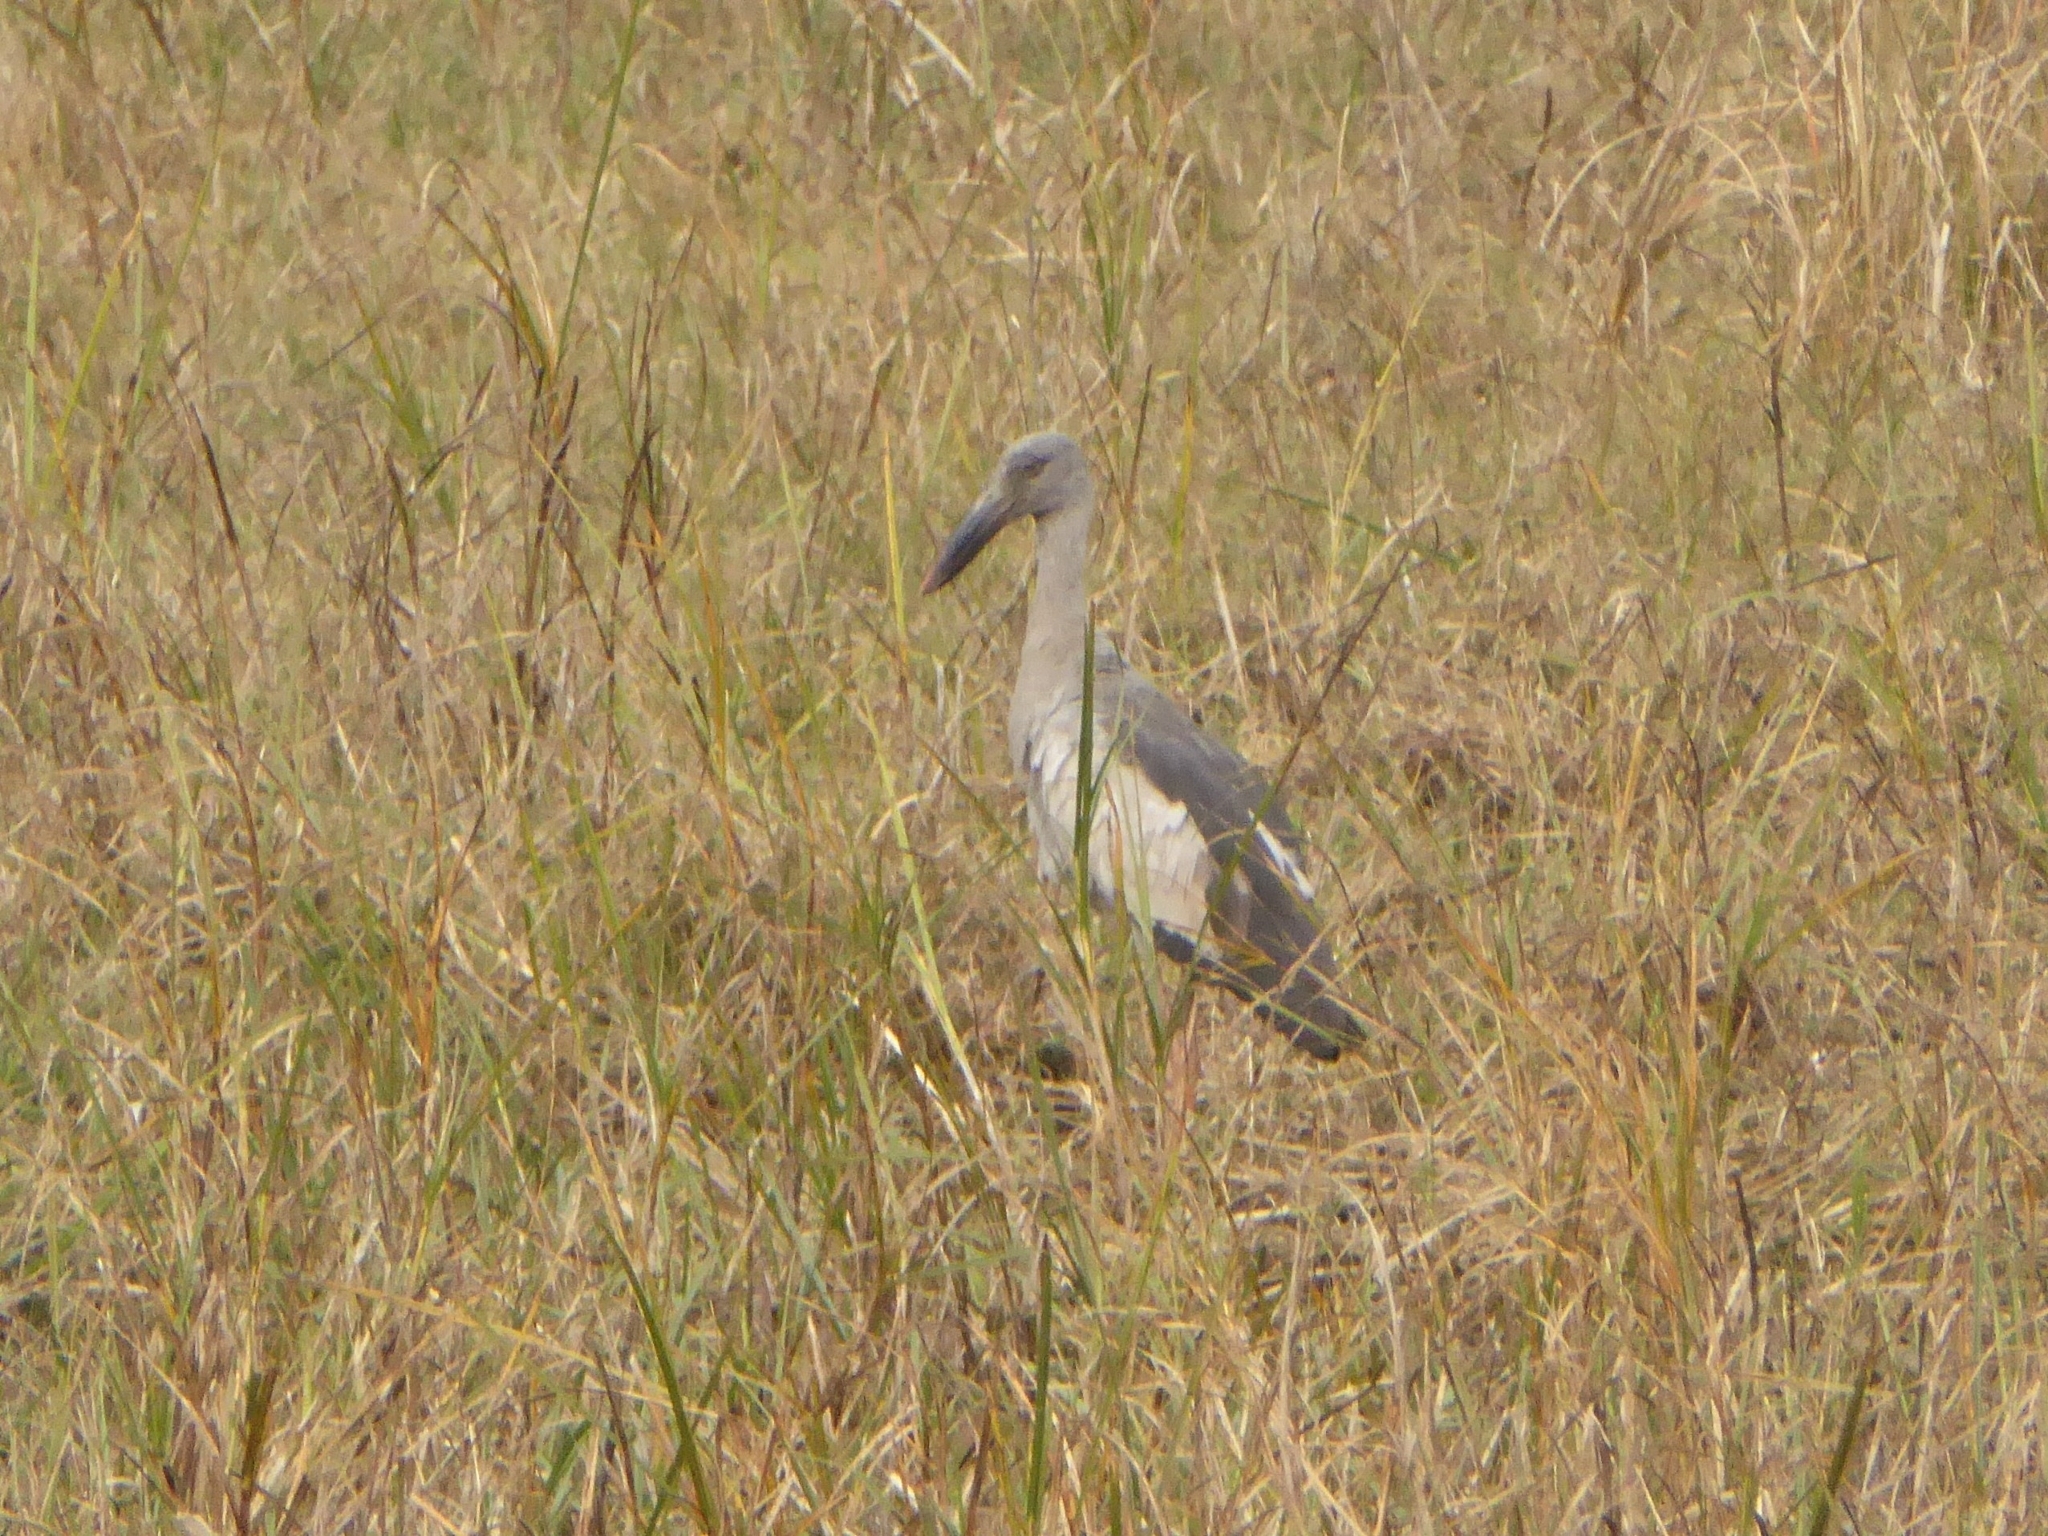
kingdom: Animalia
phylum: Chordata
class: Aves
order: Ciconiiformes
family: Ciconiidae
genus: Anastomus
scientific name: Anastomus oscitans
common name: Asian openbill
